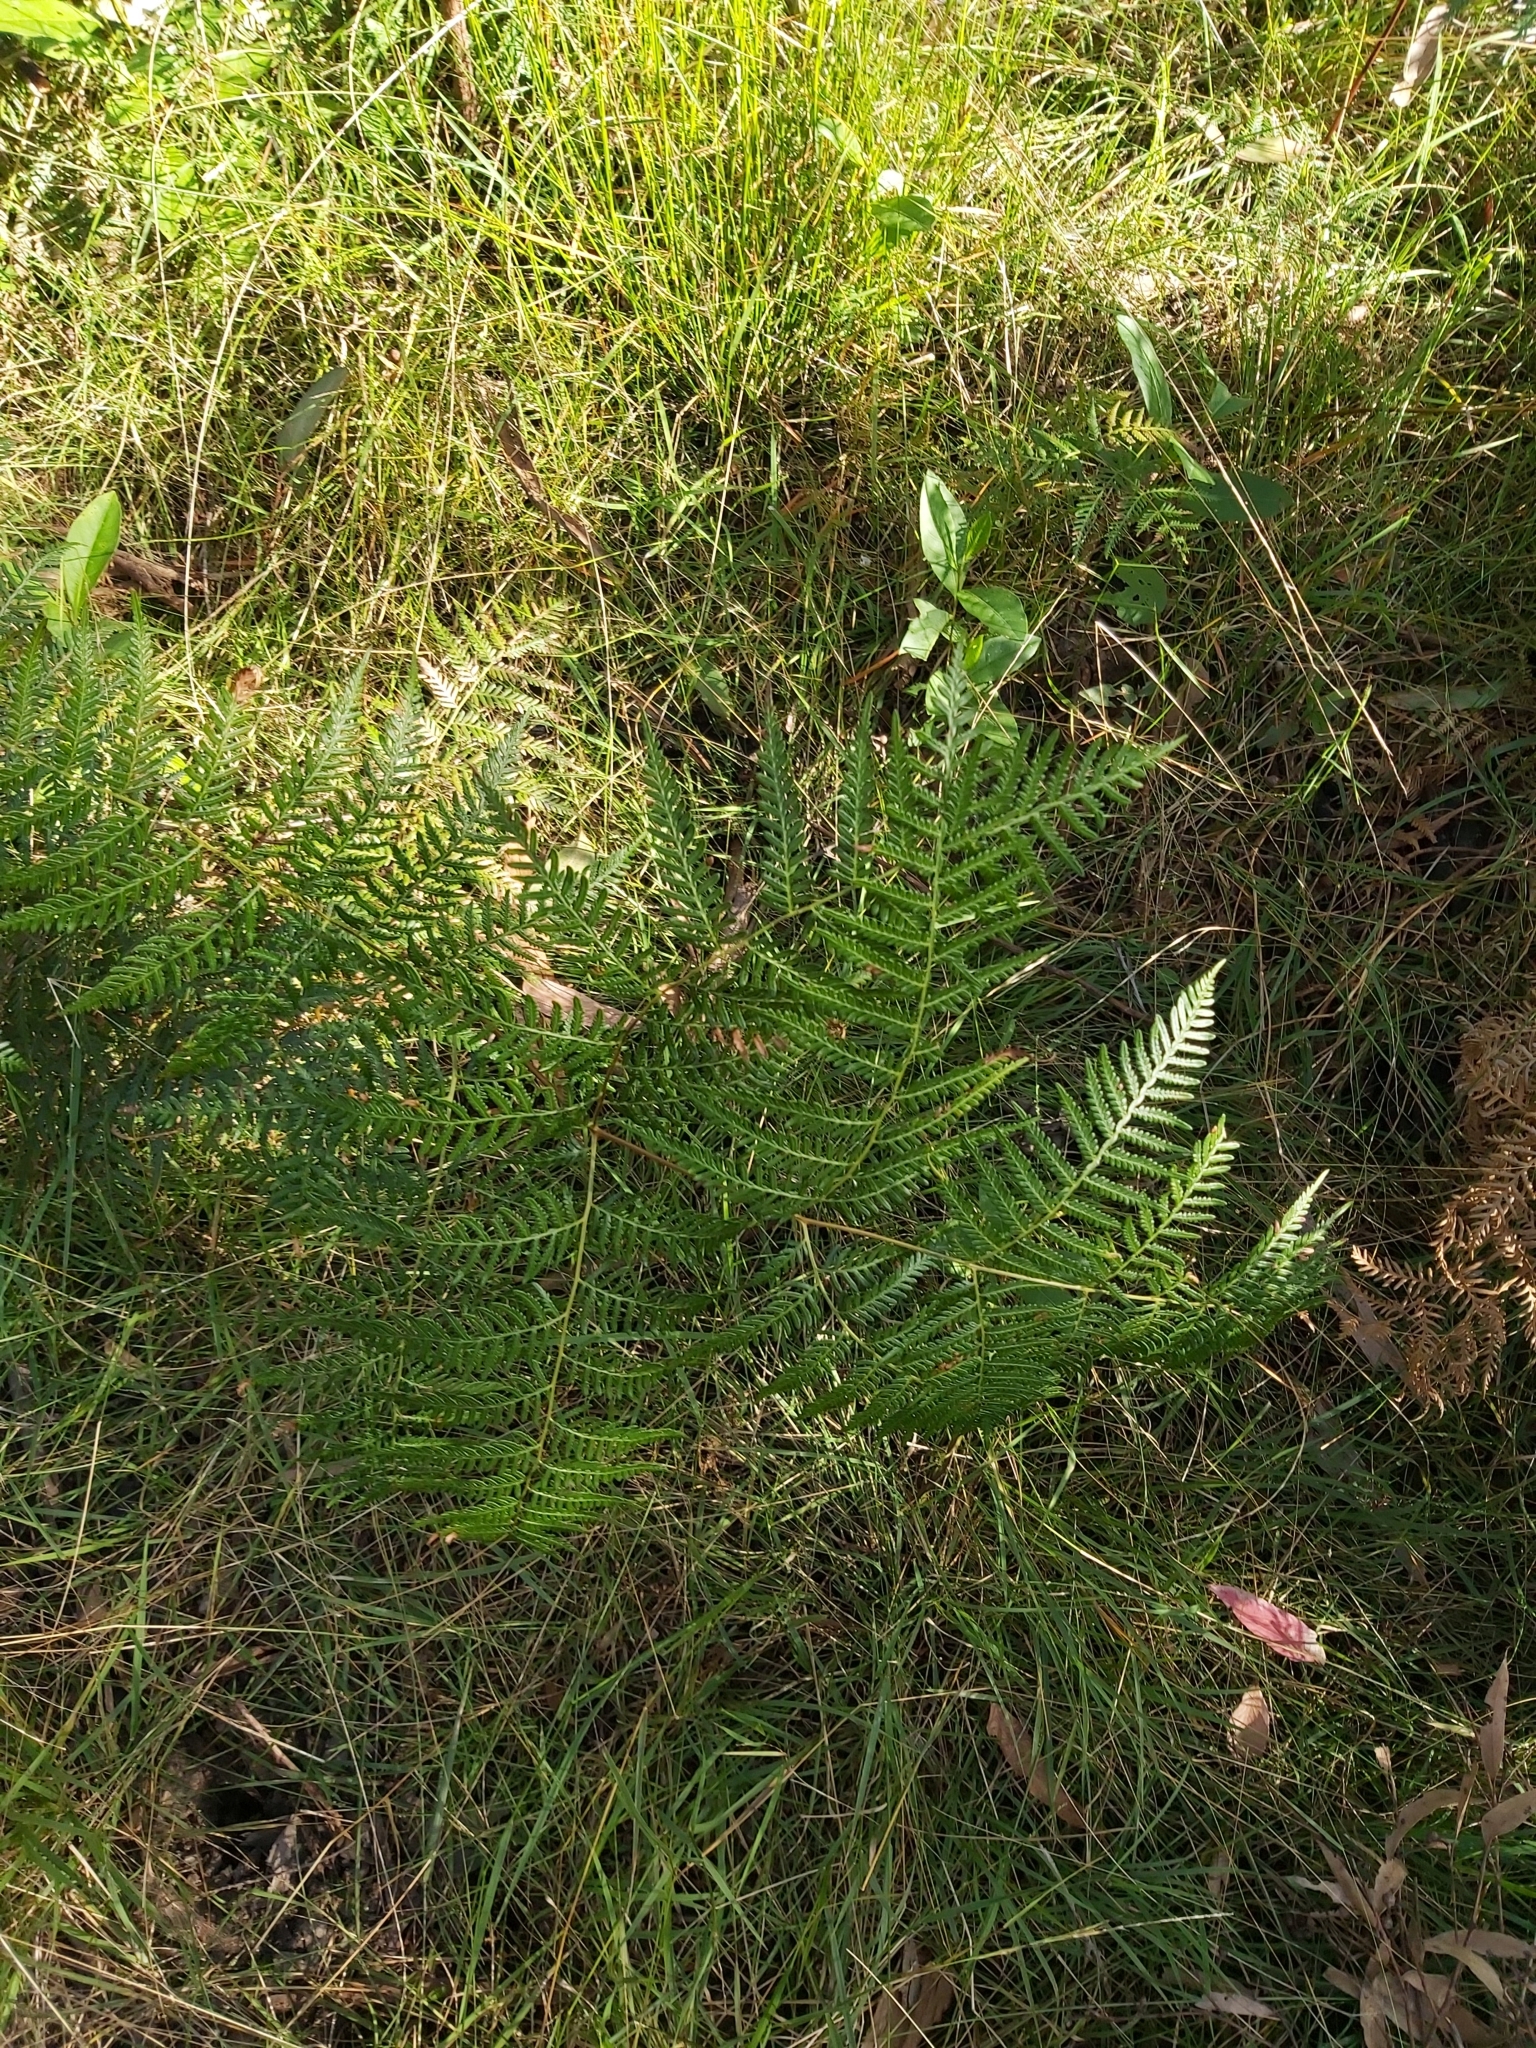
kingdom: Plantae
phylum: Tracheophyta
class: Polypodiopsida
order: Polypodiales
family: Dennstaedtiaceae
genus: Pteridium
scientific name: Pteridium esculentum
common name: Bracken fern
